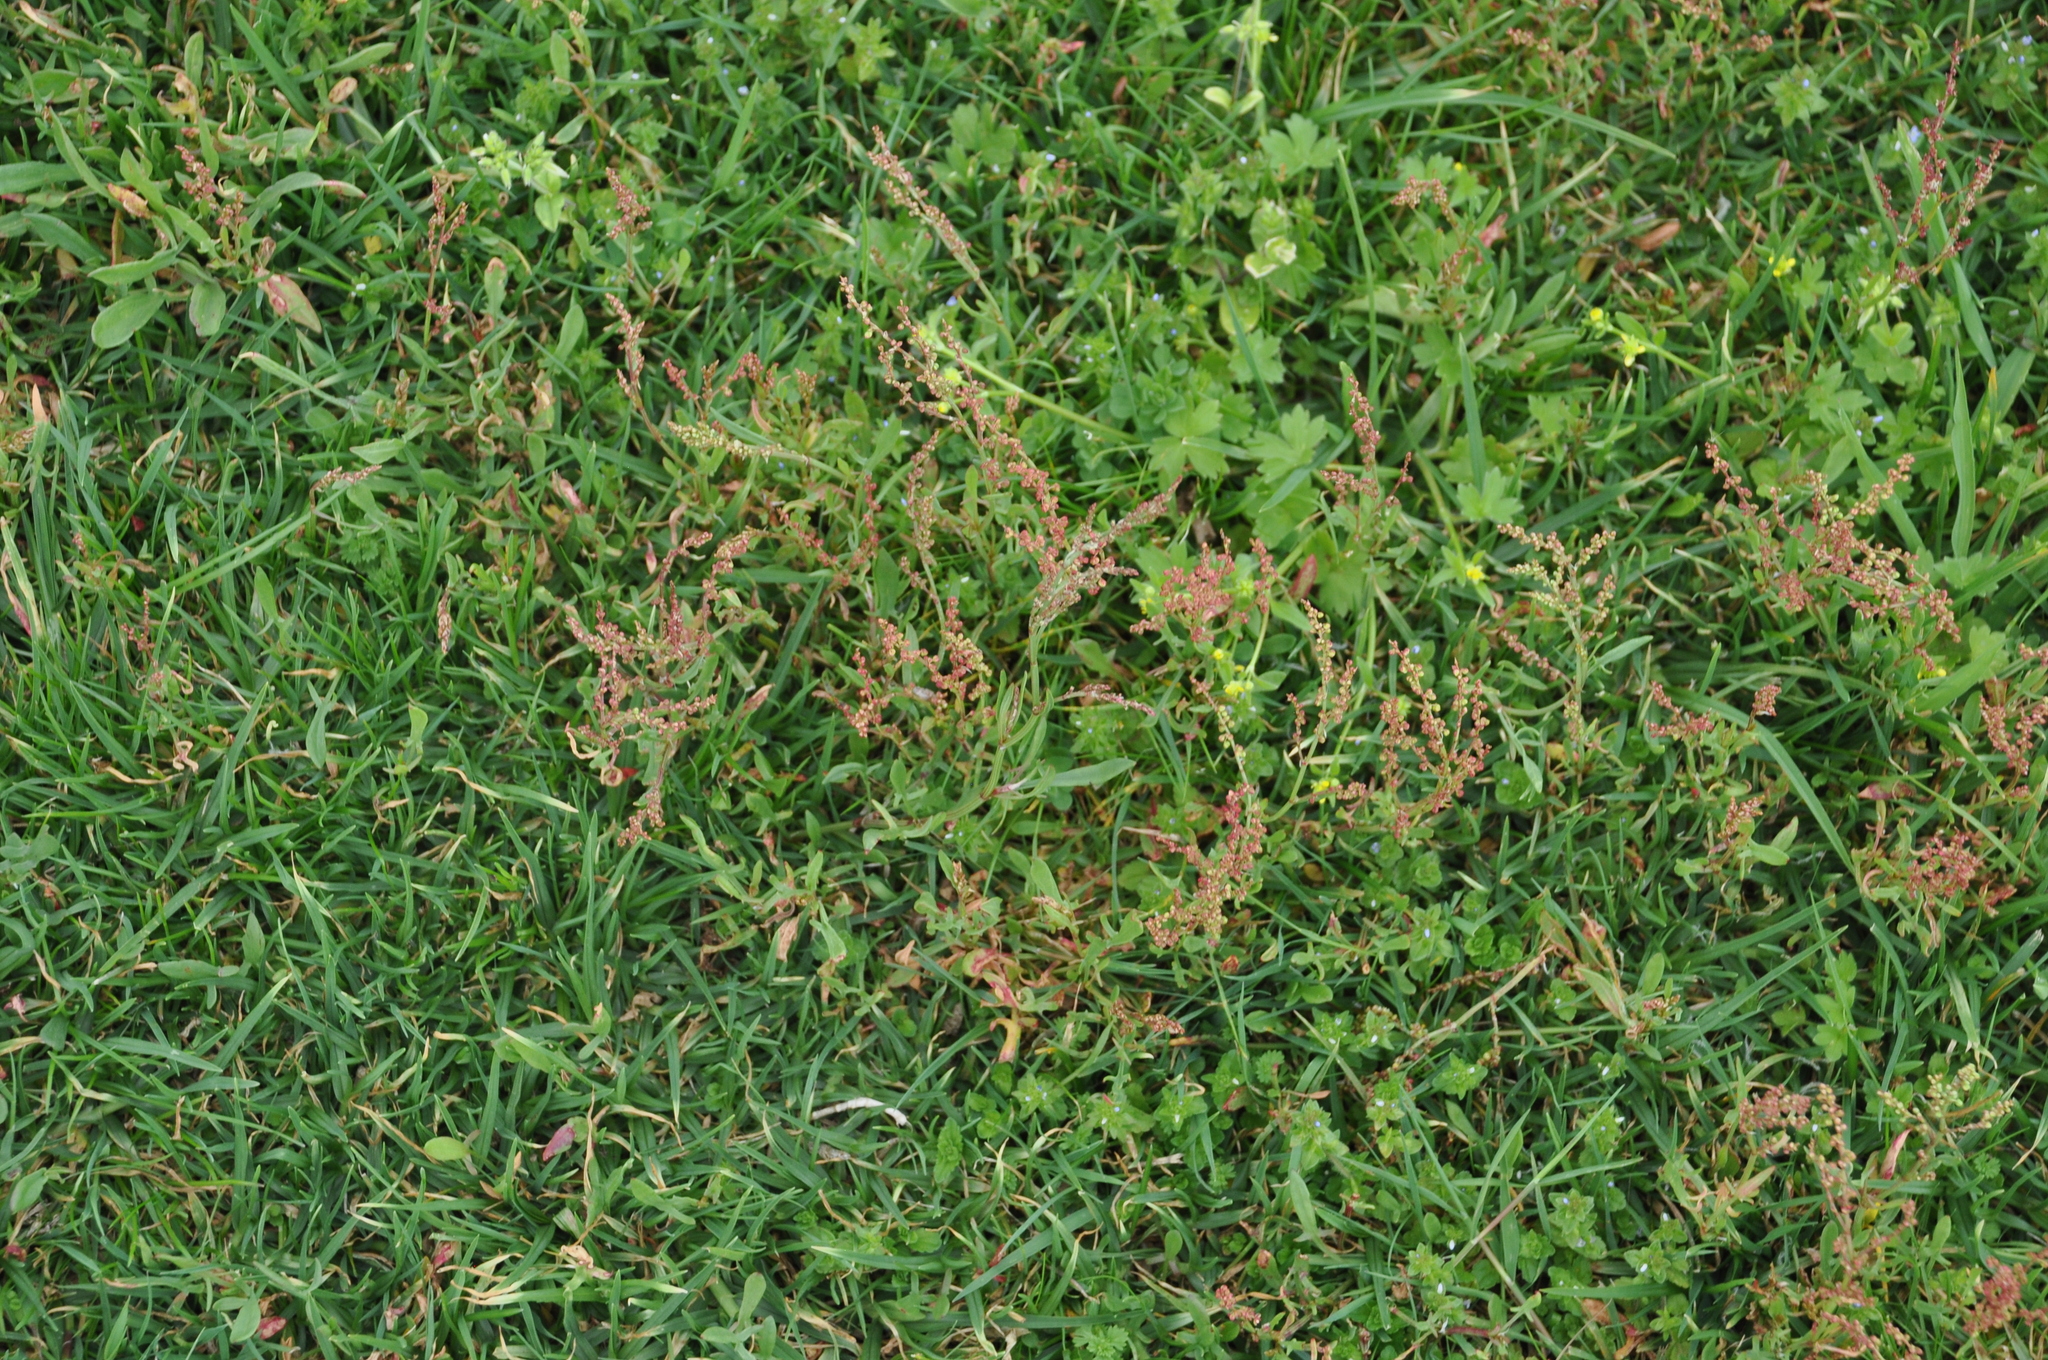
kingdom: Plantae
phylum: Tracheophyta
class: Magnoliopsida
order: Caryophyllales
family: Polygonaceae
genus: Rumex
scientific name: Rumex acetosella
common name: Common sheep sorrel
